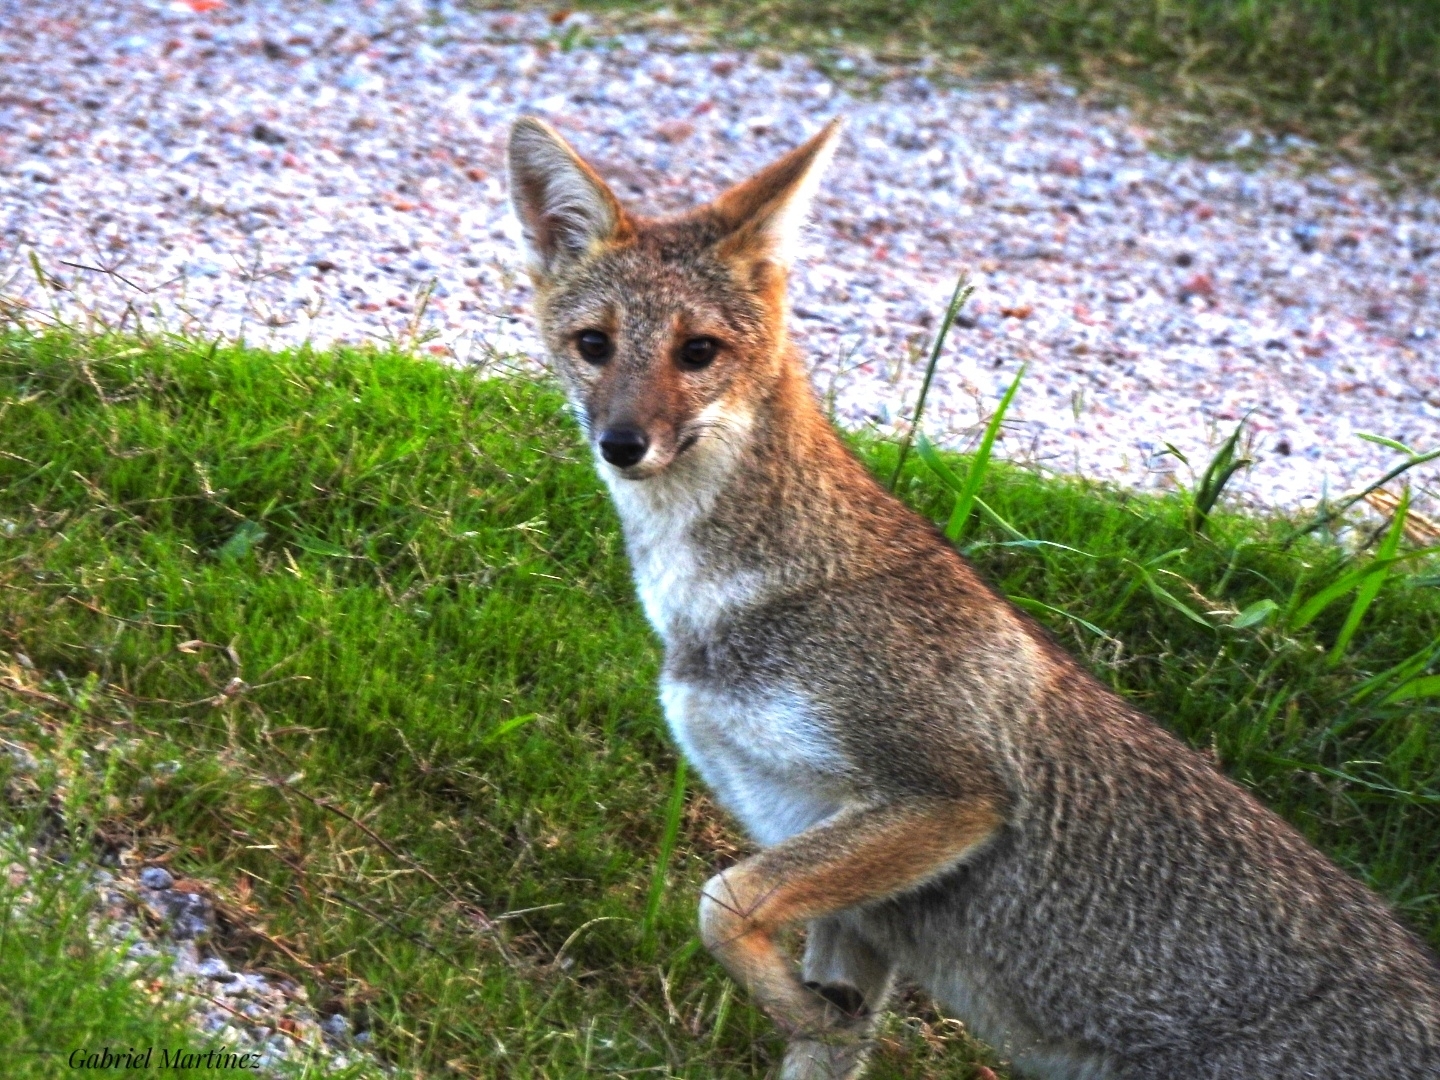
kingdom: Animalia
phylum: Chordata
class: Mammalia
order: Carnivora
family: Canidae
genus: Lycalopex
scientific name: Lycalopex gymnocercus
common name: Pampas fox
